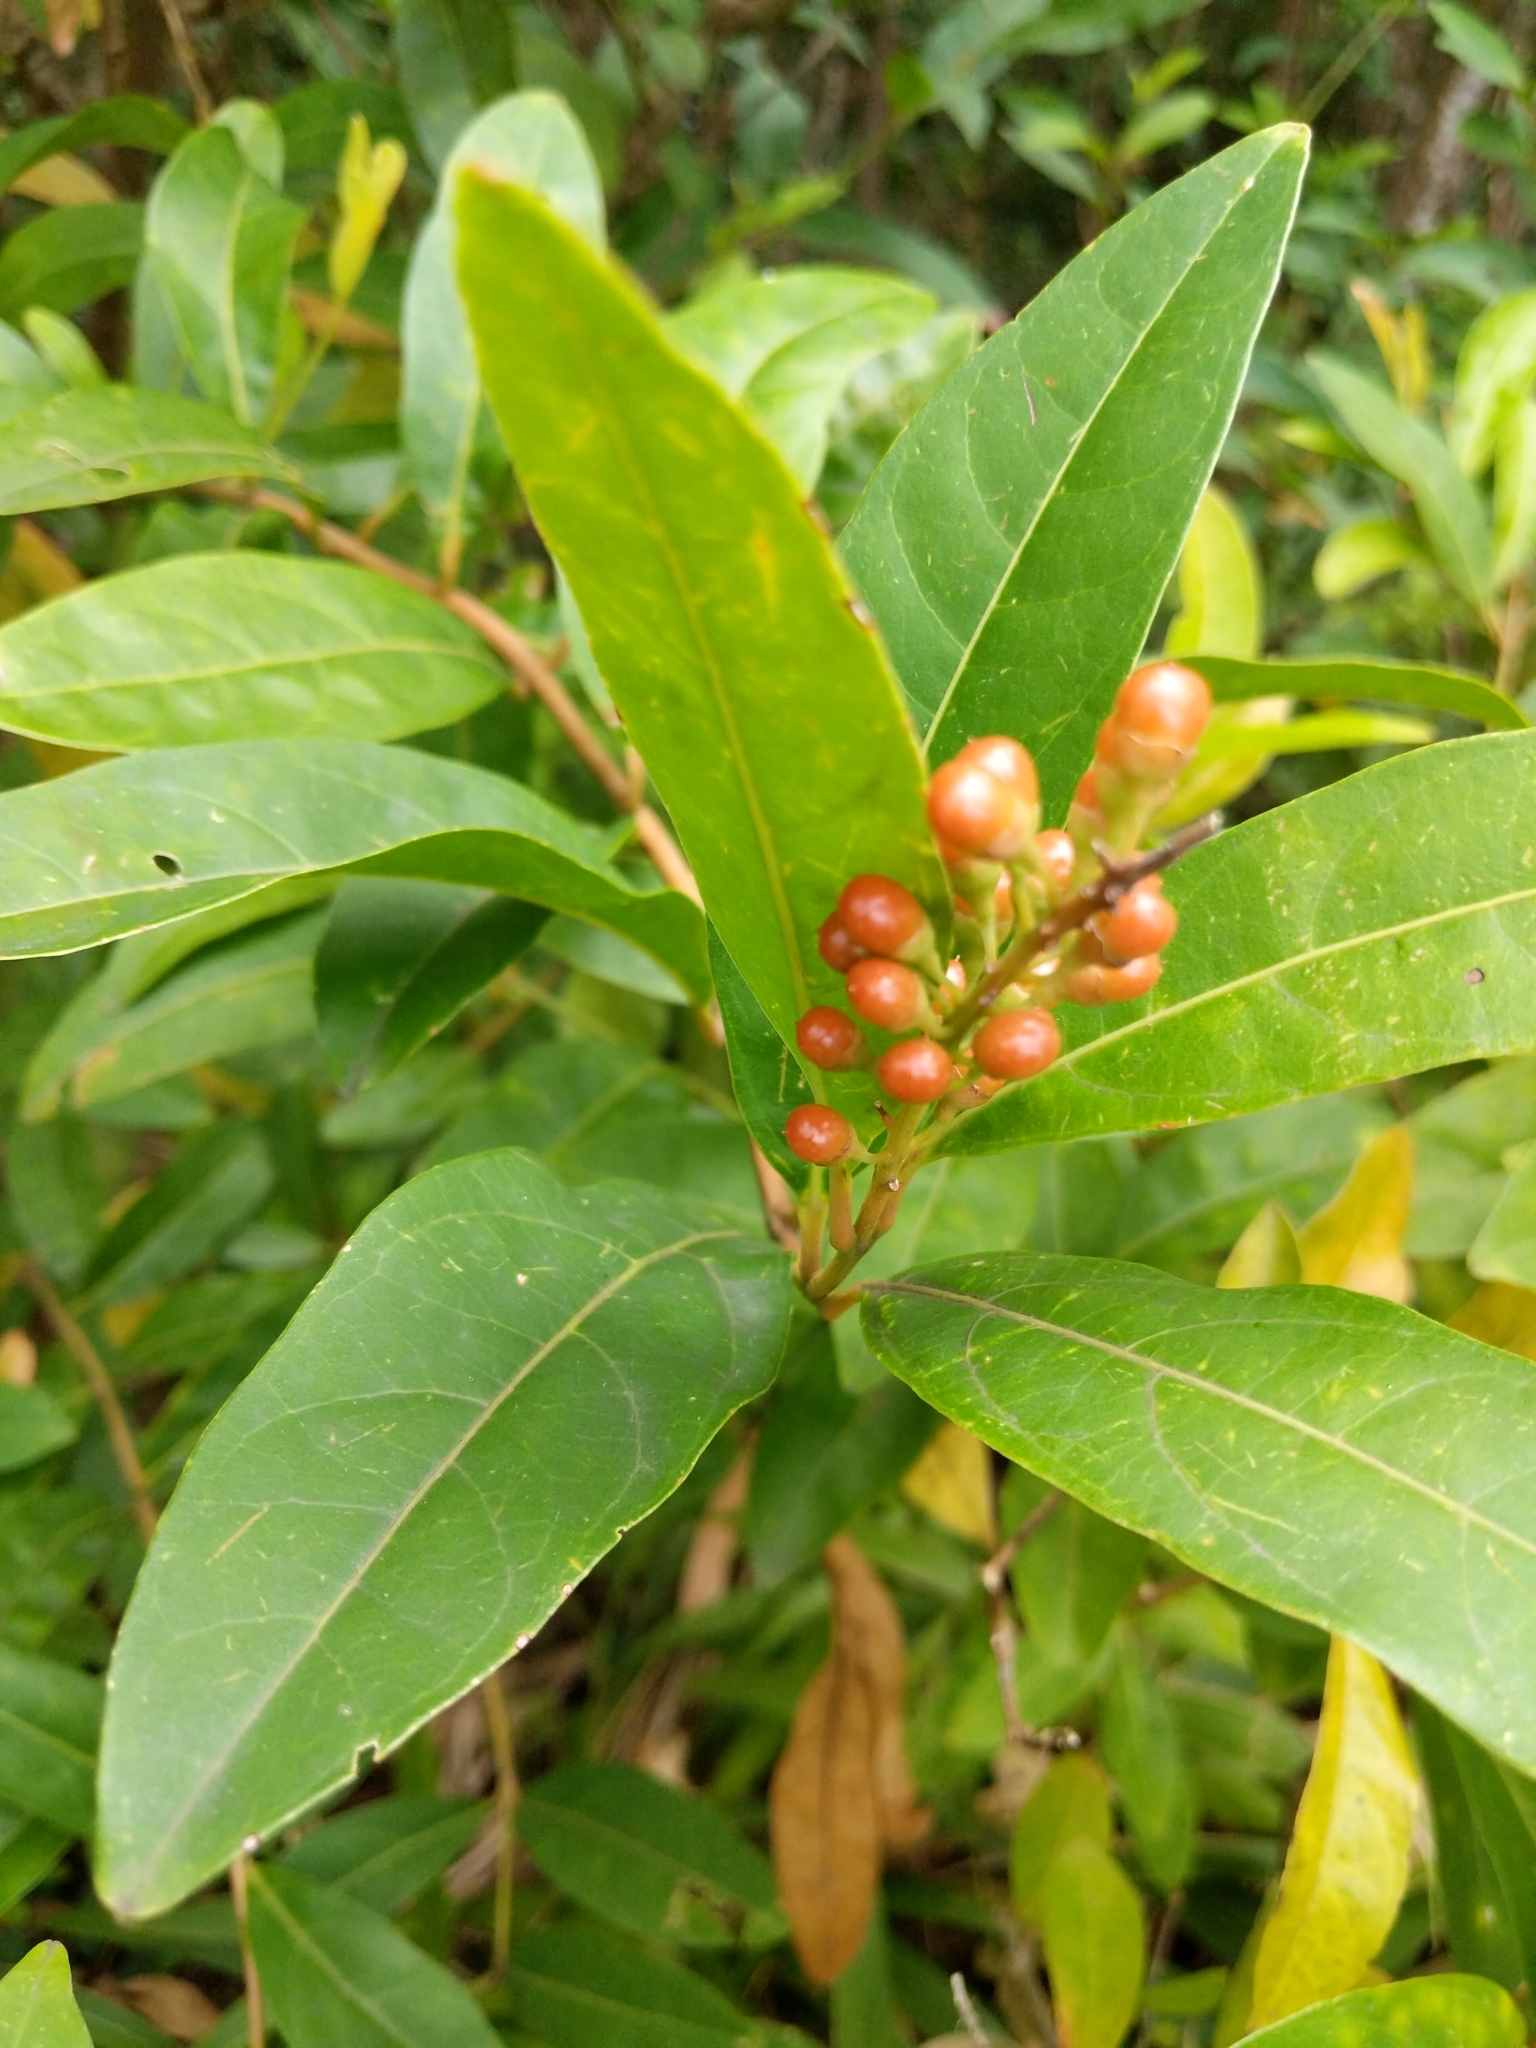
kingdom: Plantae
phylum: Tracheophyta
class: Magnoliopsida
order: Lamiales
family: Verbenaceae
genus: Citharexylum
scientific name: Citharexylum caudatum
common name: Fiddlewood
